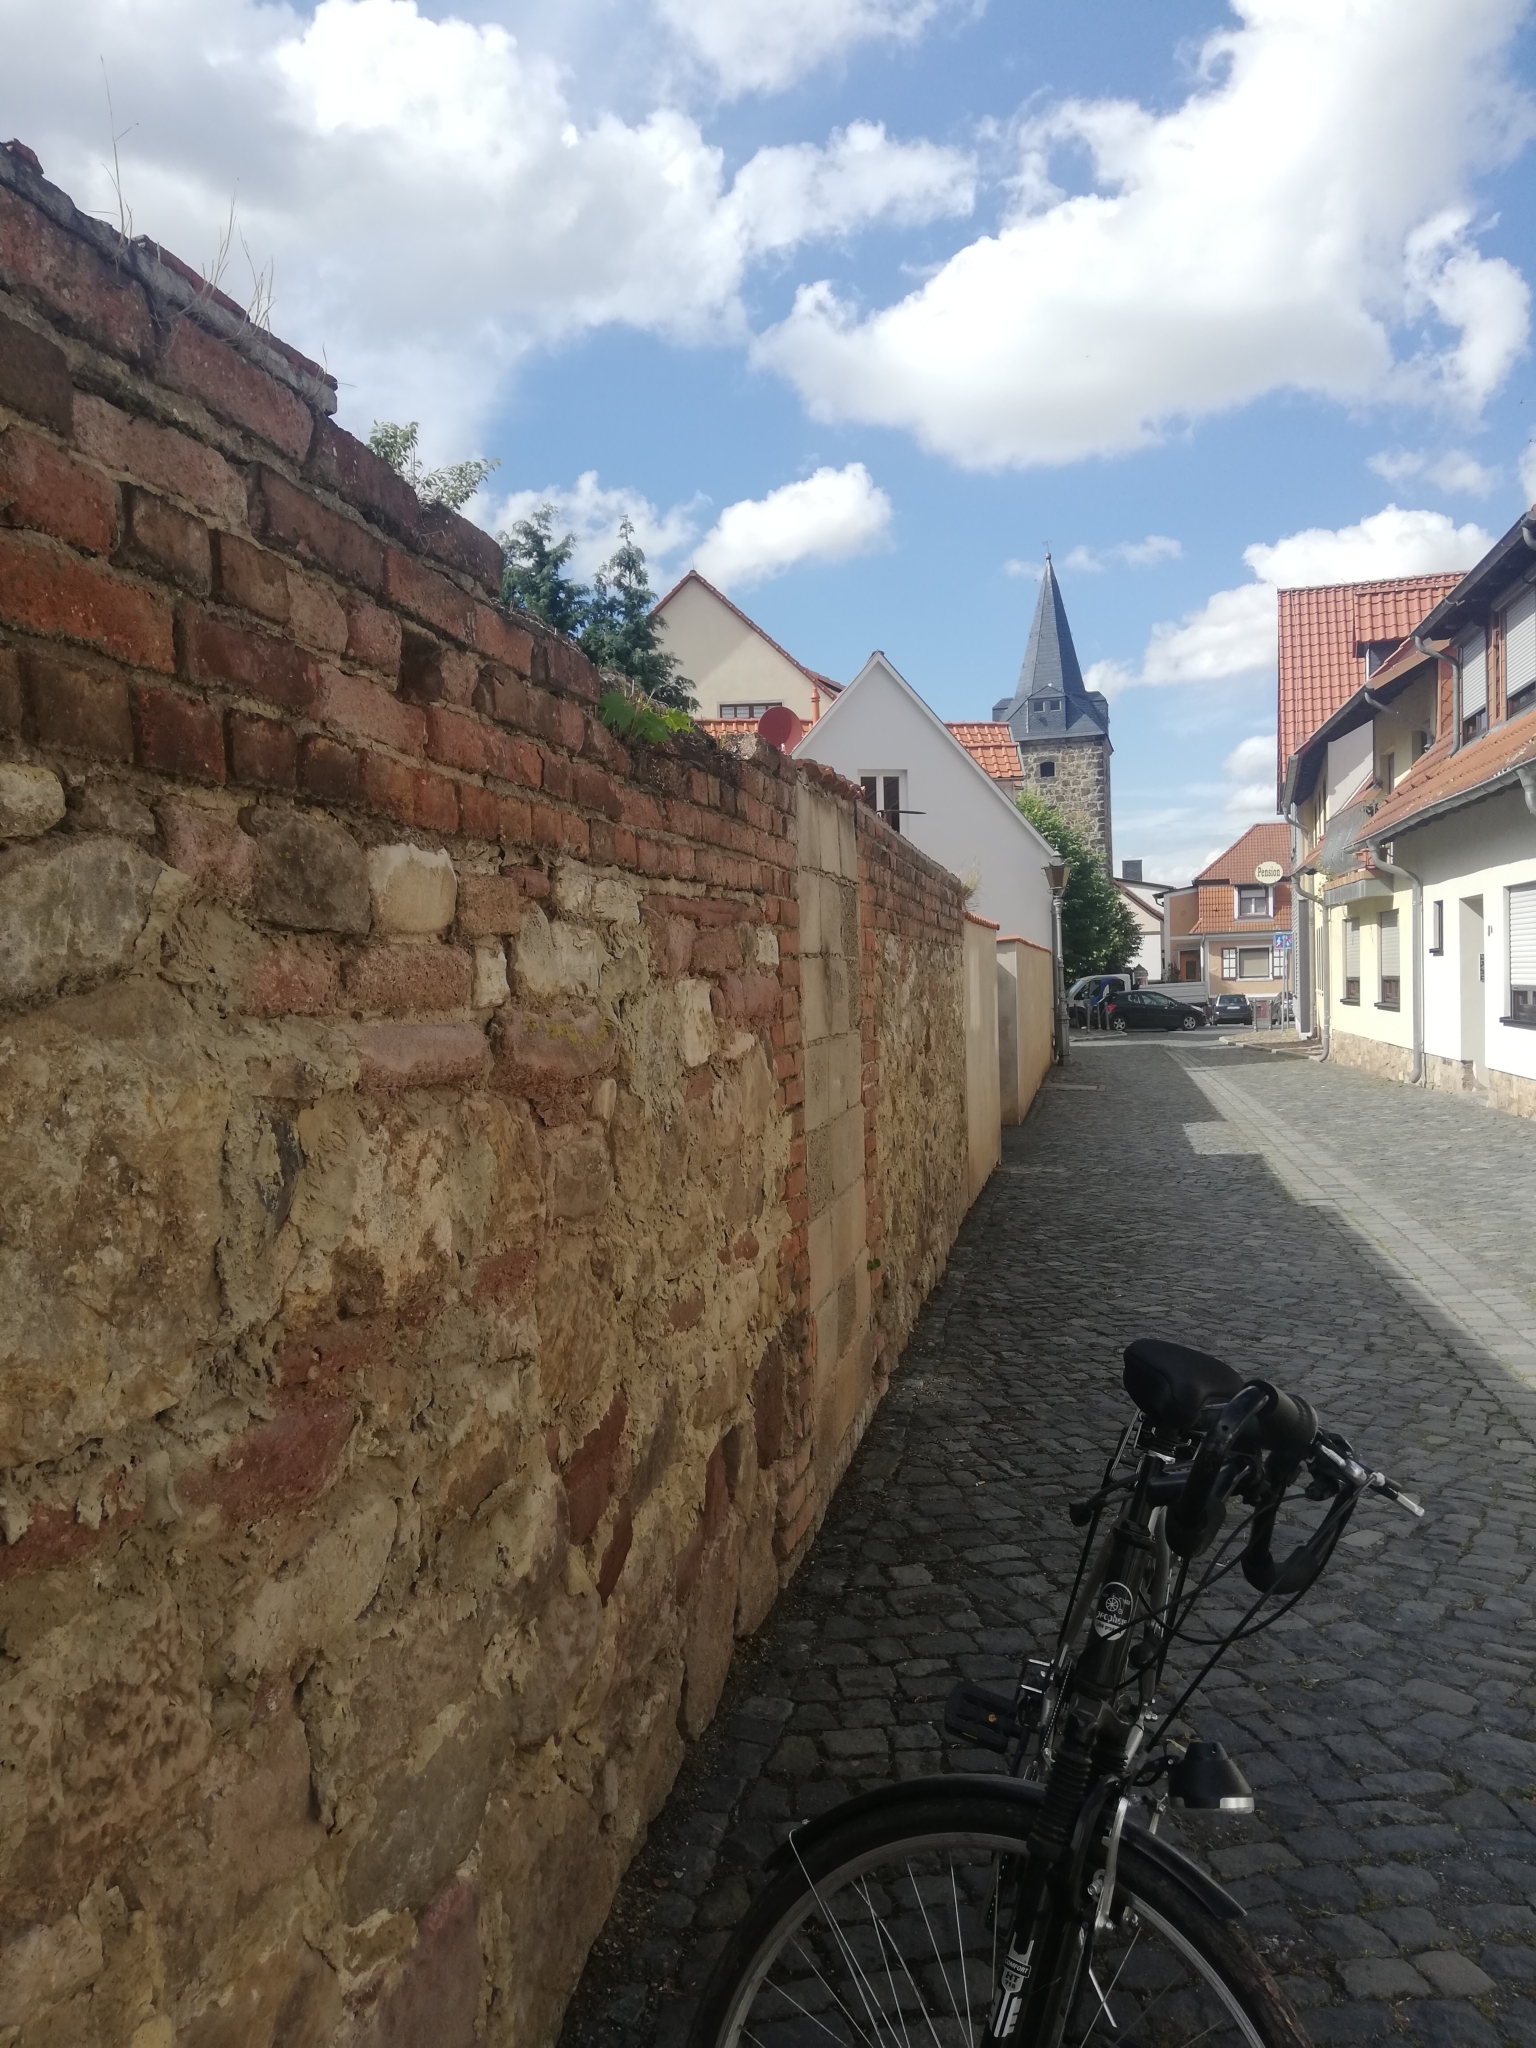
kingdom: Plantae
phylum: Tracheophyta
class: Polypodiopsida
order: Polypodiales
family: Aspleniaceae
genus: Asplenium
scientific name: Asplenium ruta-muraria
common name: Wall-rue
